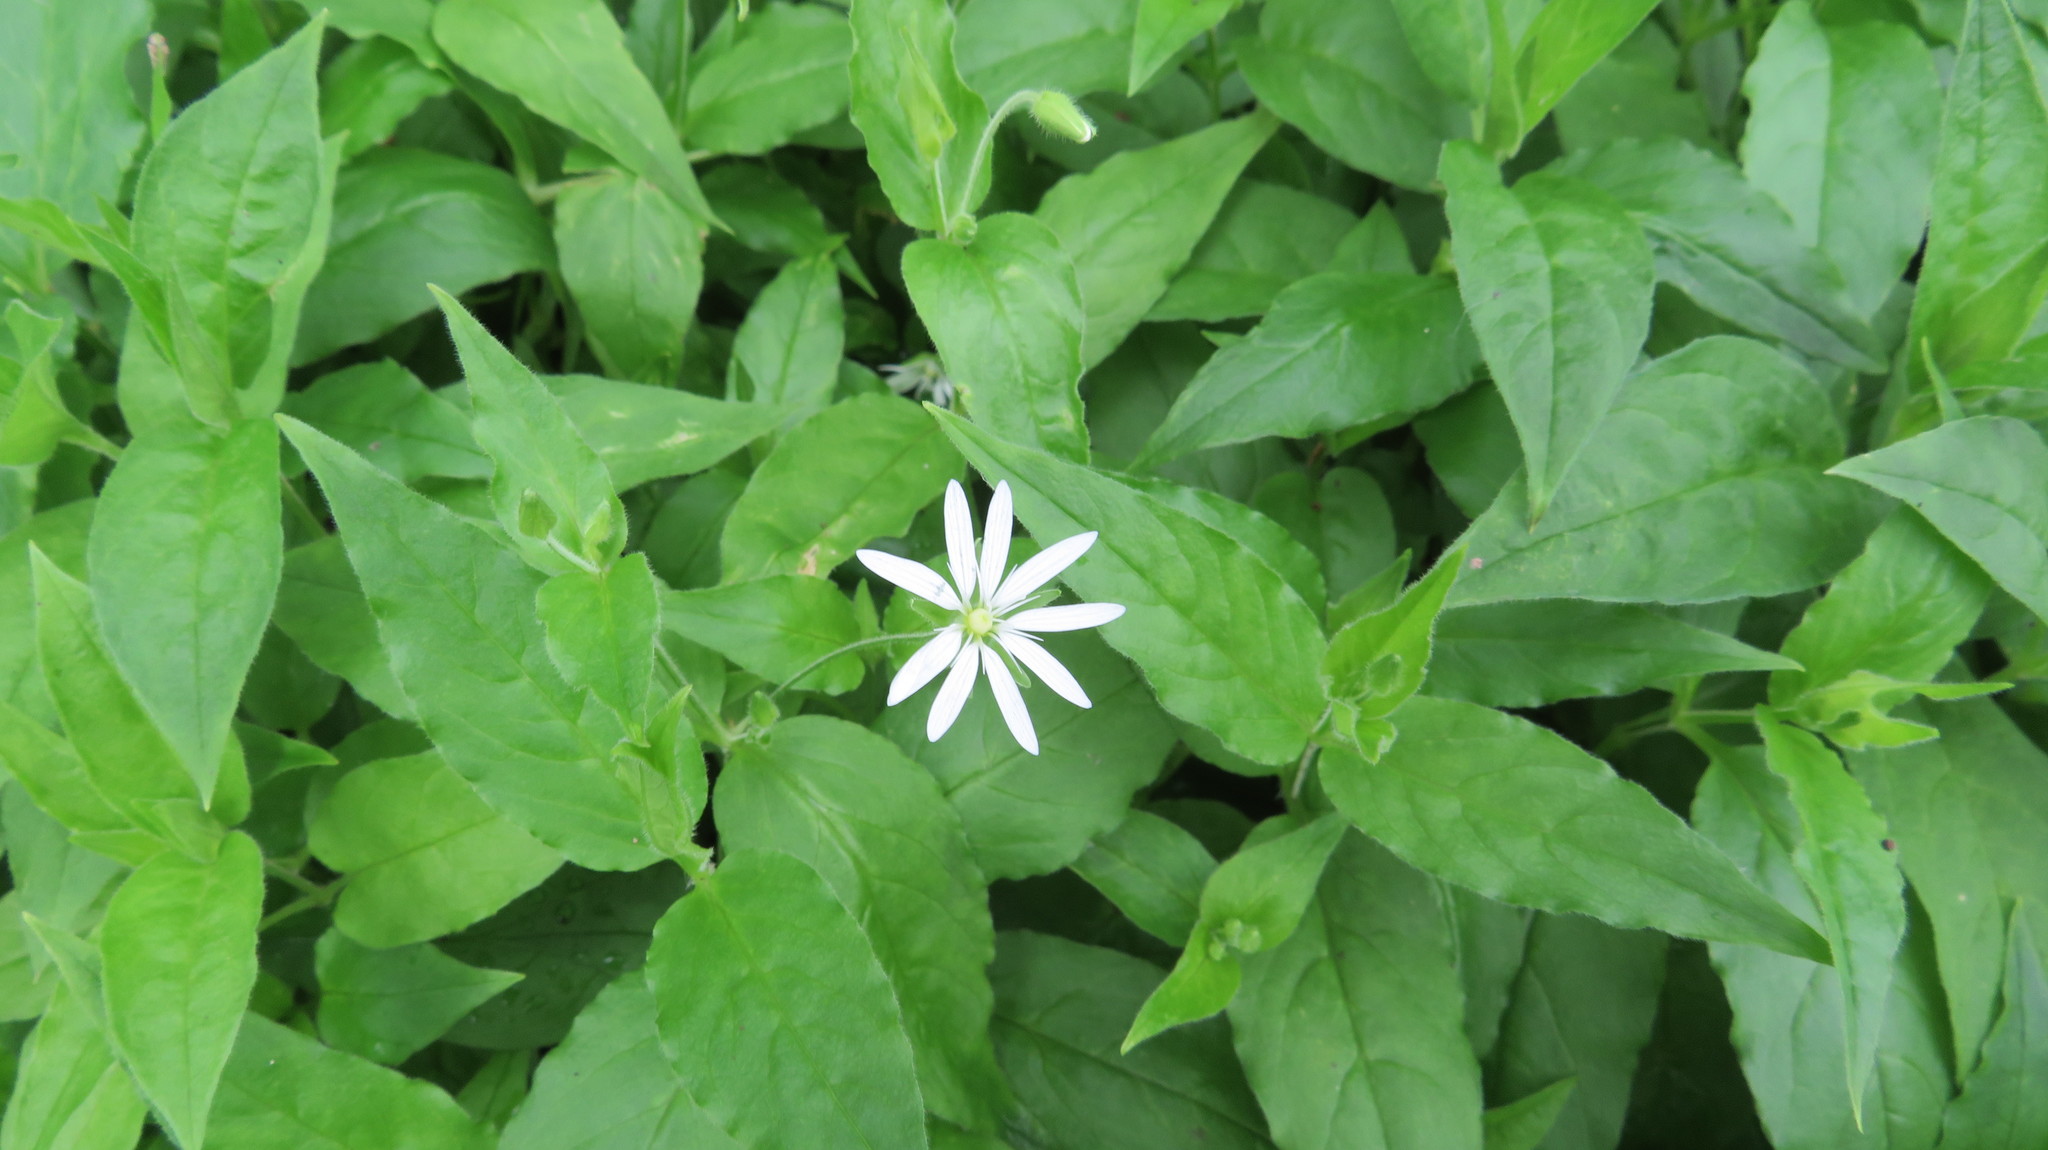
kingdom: Plantae
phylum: Tracheophyta
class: Magnoliopsida
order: Caryophyllales
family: Caryophyllaceae
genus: Stellaria
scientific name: Stellaria bungeana
